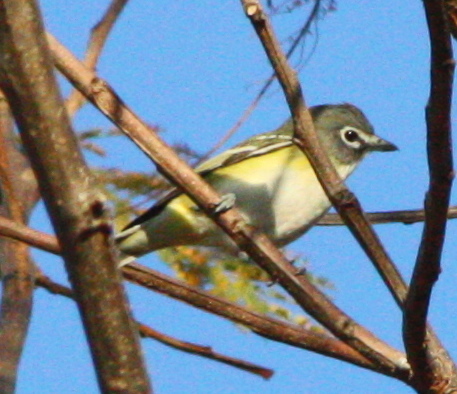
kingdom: Animalia
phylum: Chordata
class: Aves
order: Passeriformes
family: Vireonidae
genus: Vireo
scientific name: Vireo cassinii
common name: Cassin's vireo
